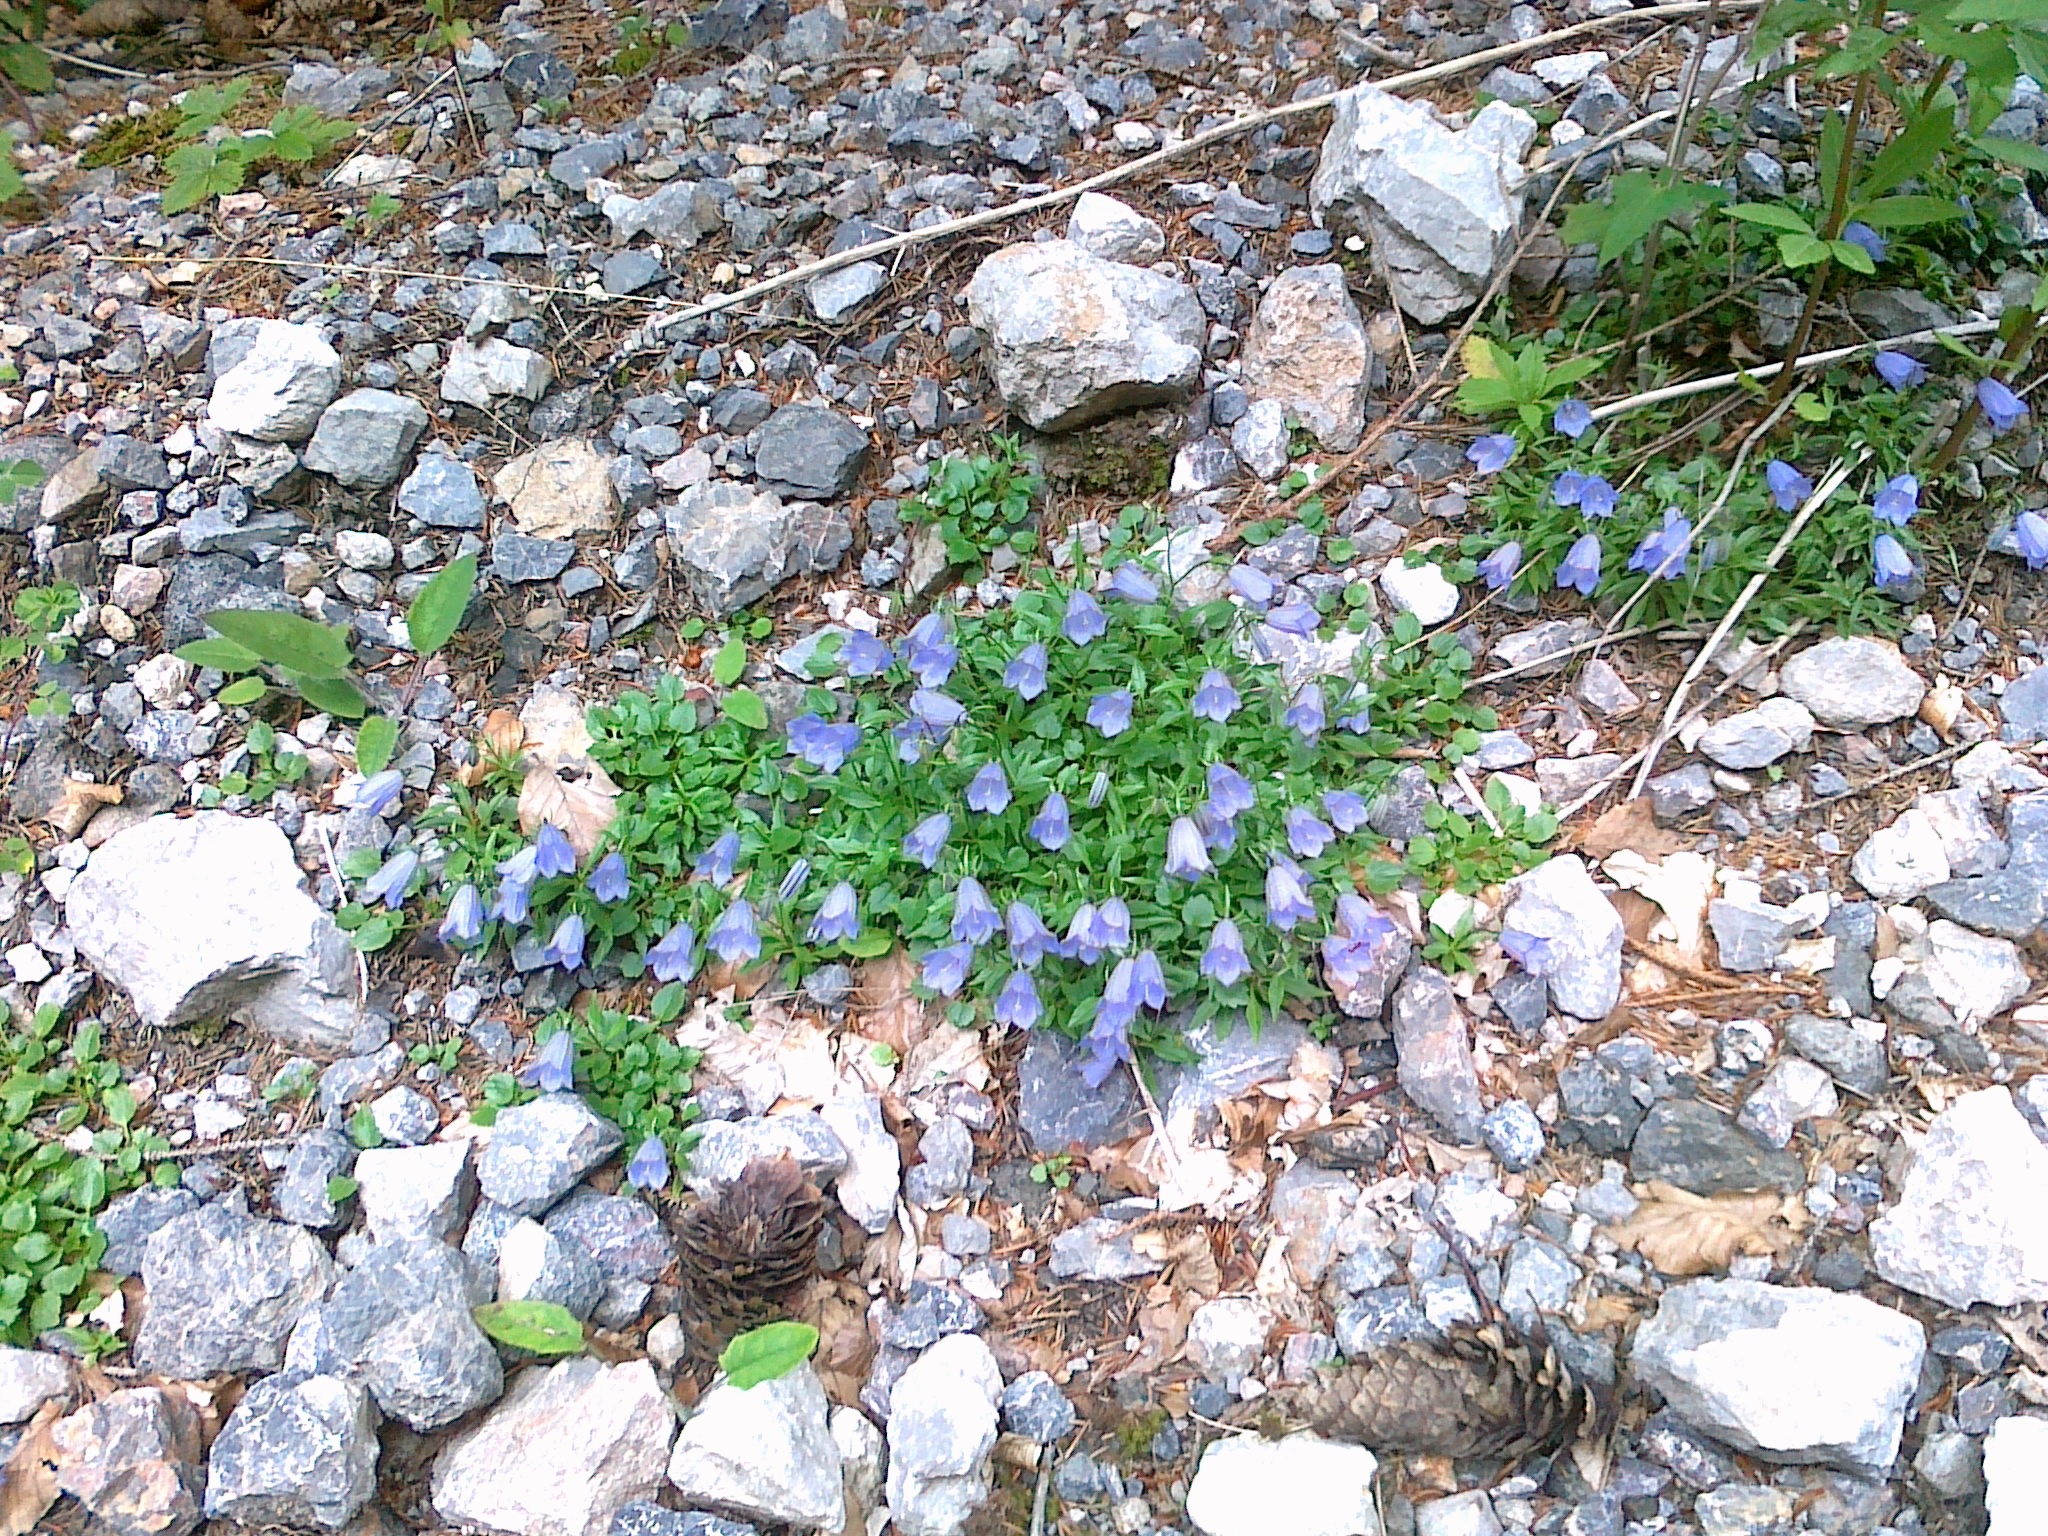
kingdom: Plantae
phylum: Tracheophyta
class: Magnoliopsida
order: Asterales
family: Campanulaceae
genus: Campanula
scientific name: Campanula cochleariifolia
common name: Fairies'-thimbles
